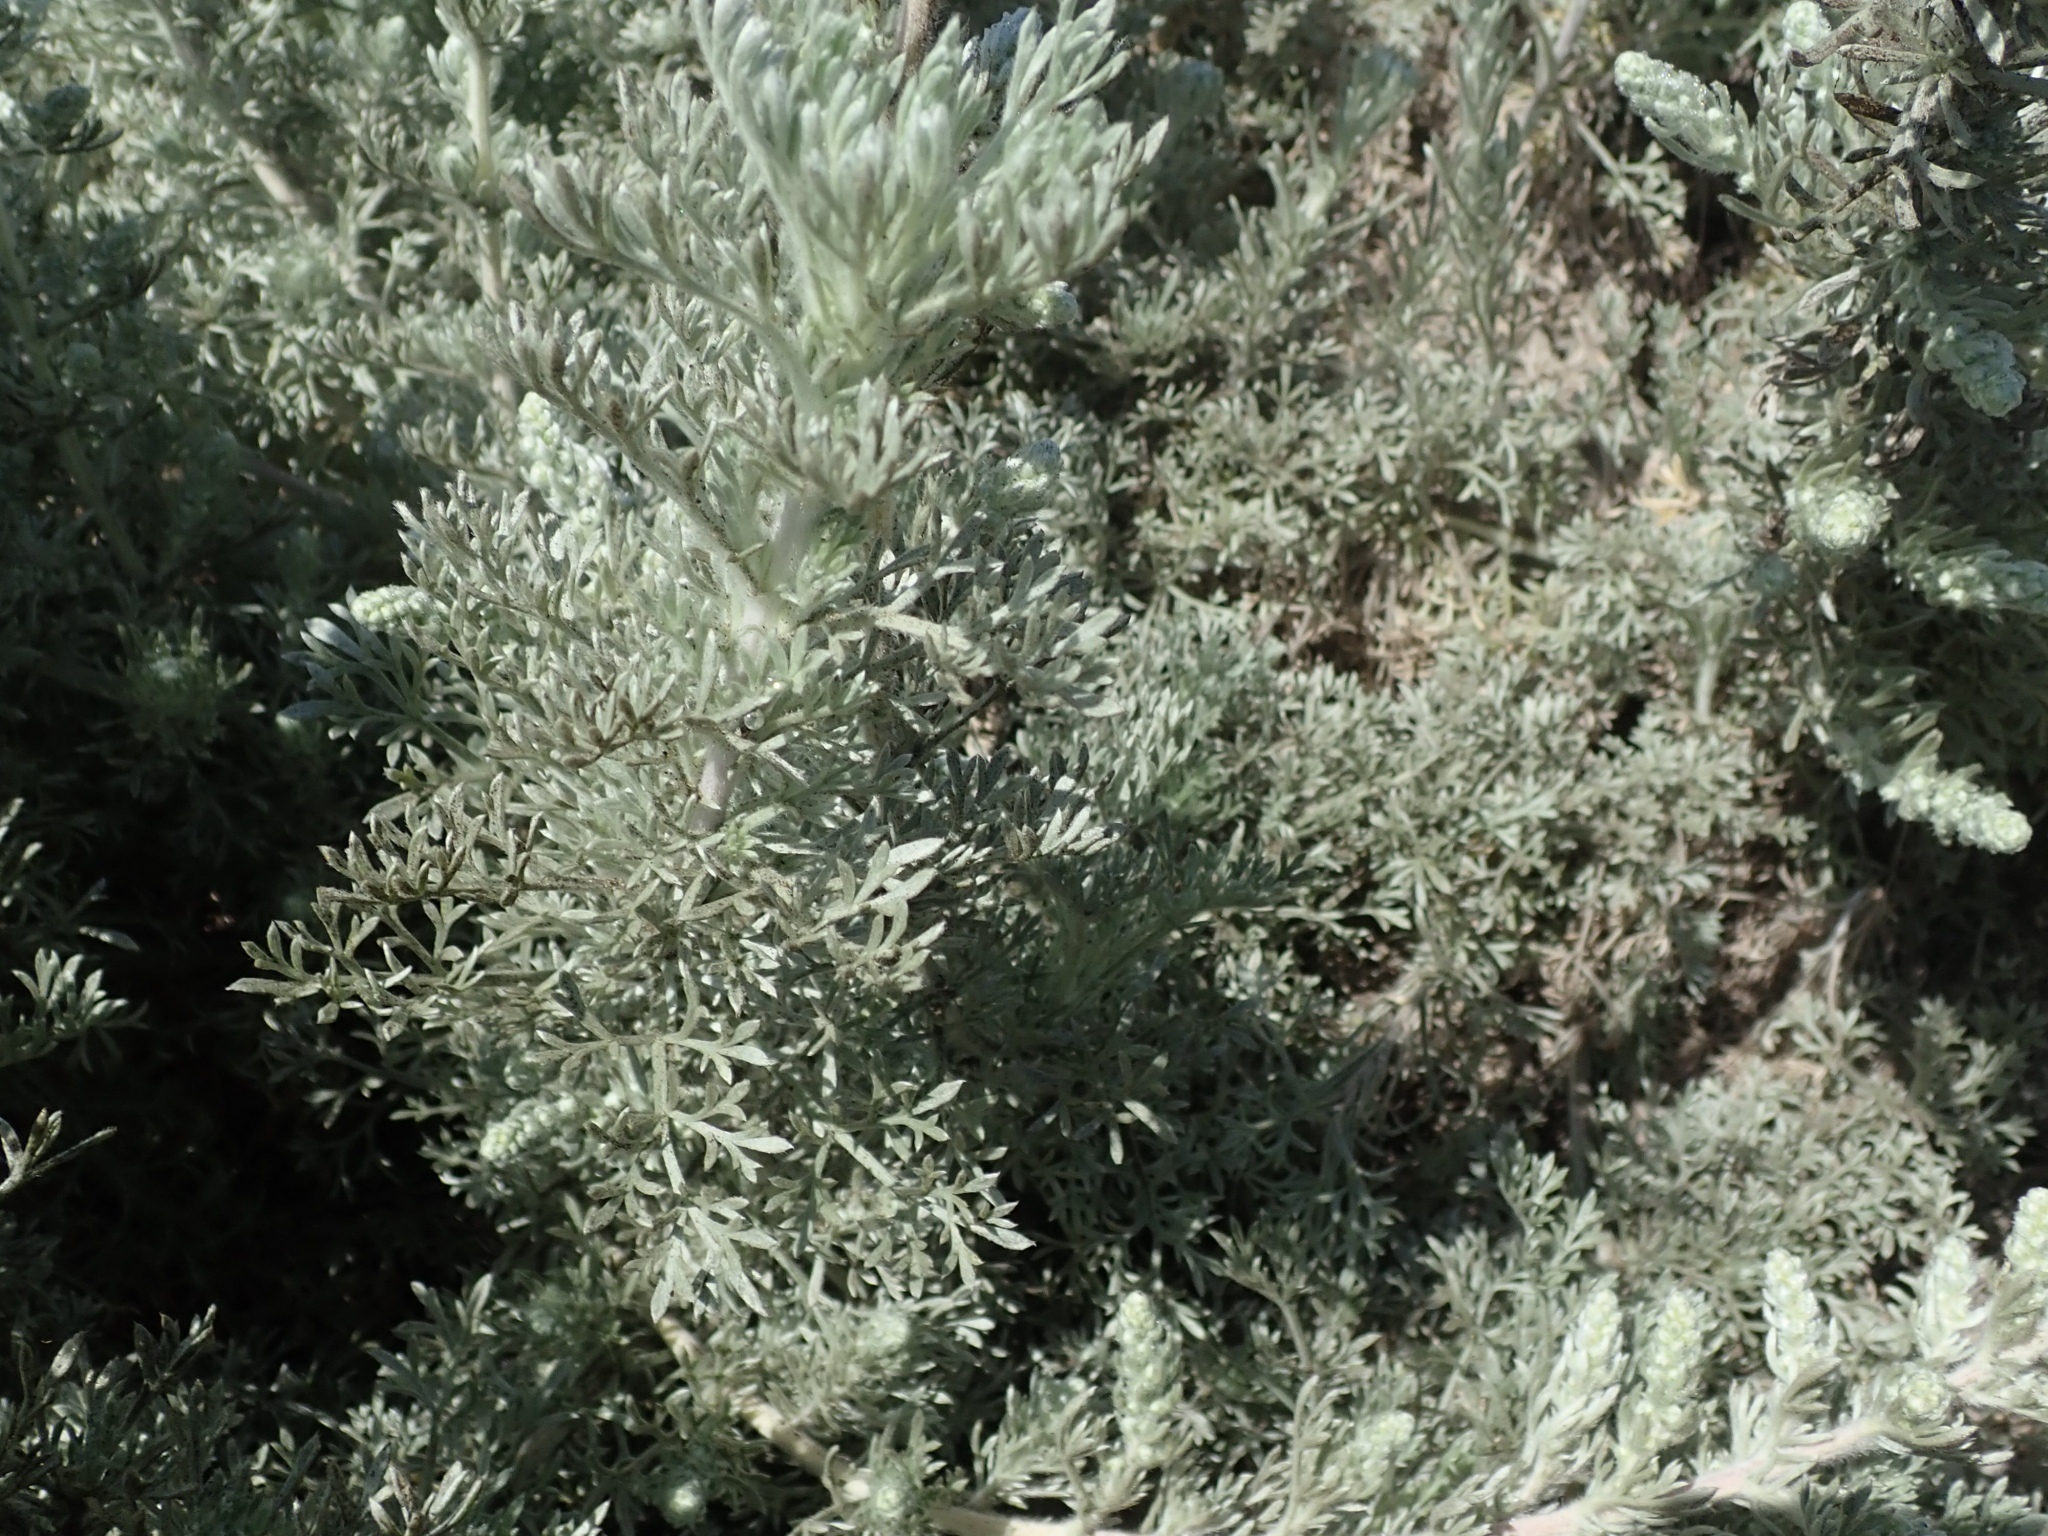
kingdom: Plantae
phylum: Tracheophyta
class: Magnoliopsida
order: Asterales
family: Asteraceae
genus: Artemisia
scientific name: Artemisia pycnocephala
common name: Coastal sagewort
